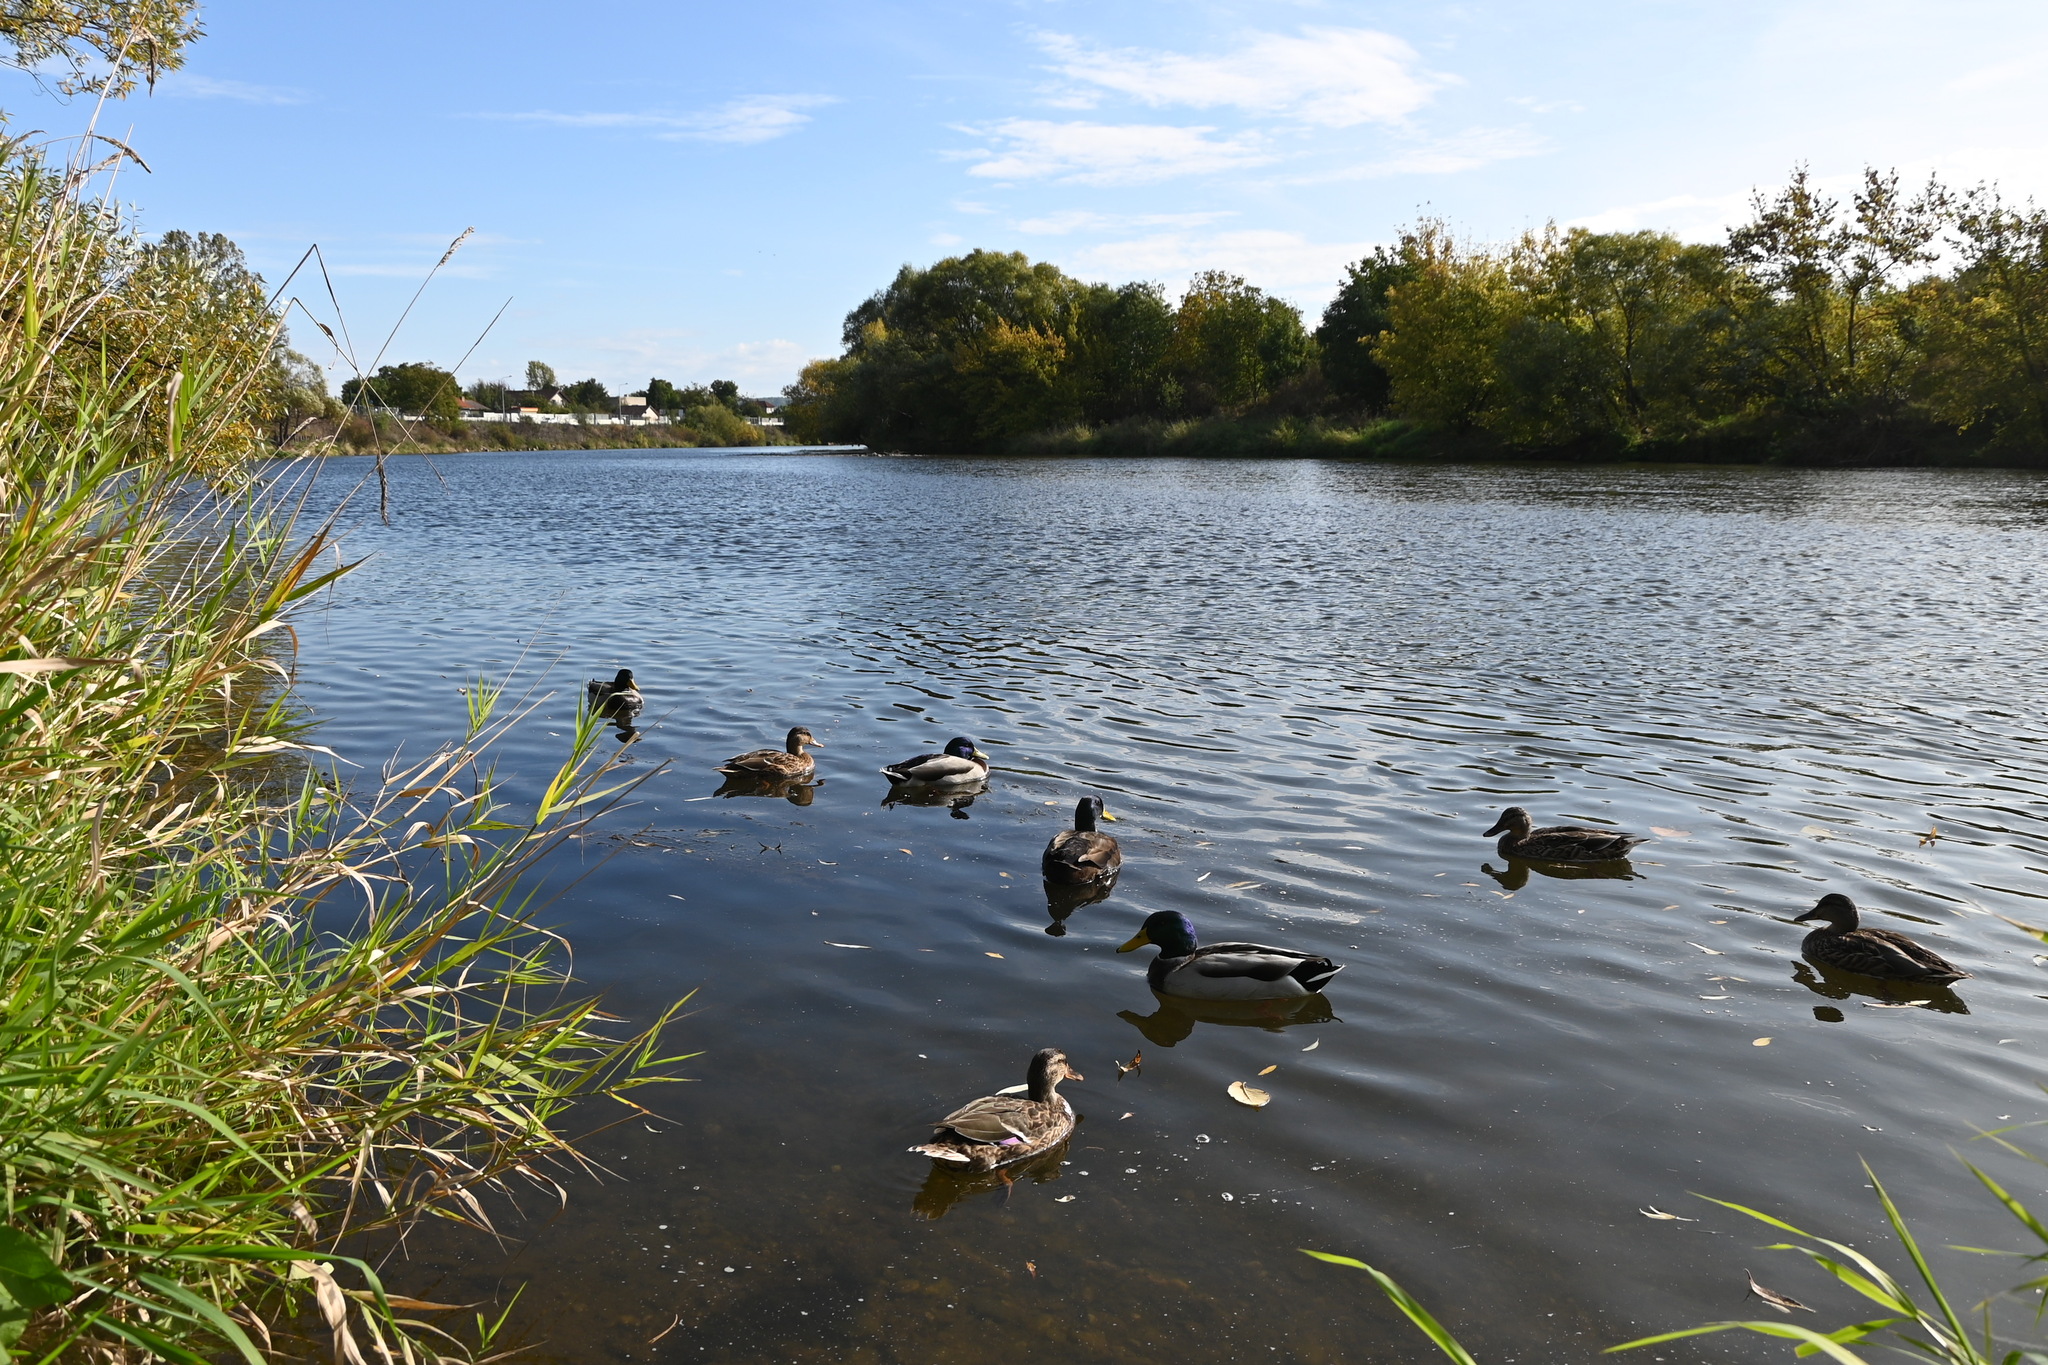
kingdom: Animalia
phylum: Chordata
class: Aves
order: Anseriformes
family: Anatidae
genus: Anas
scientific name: Anas platyrhynchos
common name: Mallard
